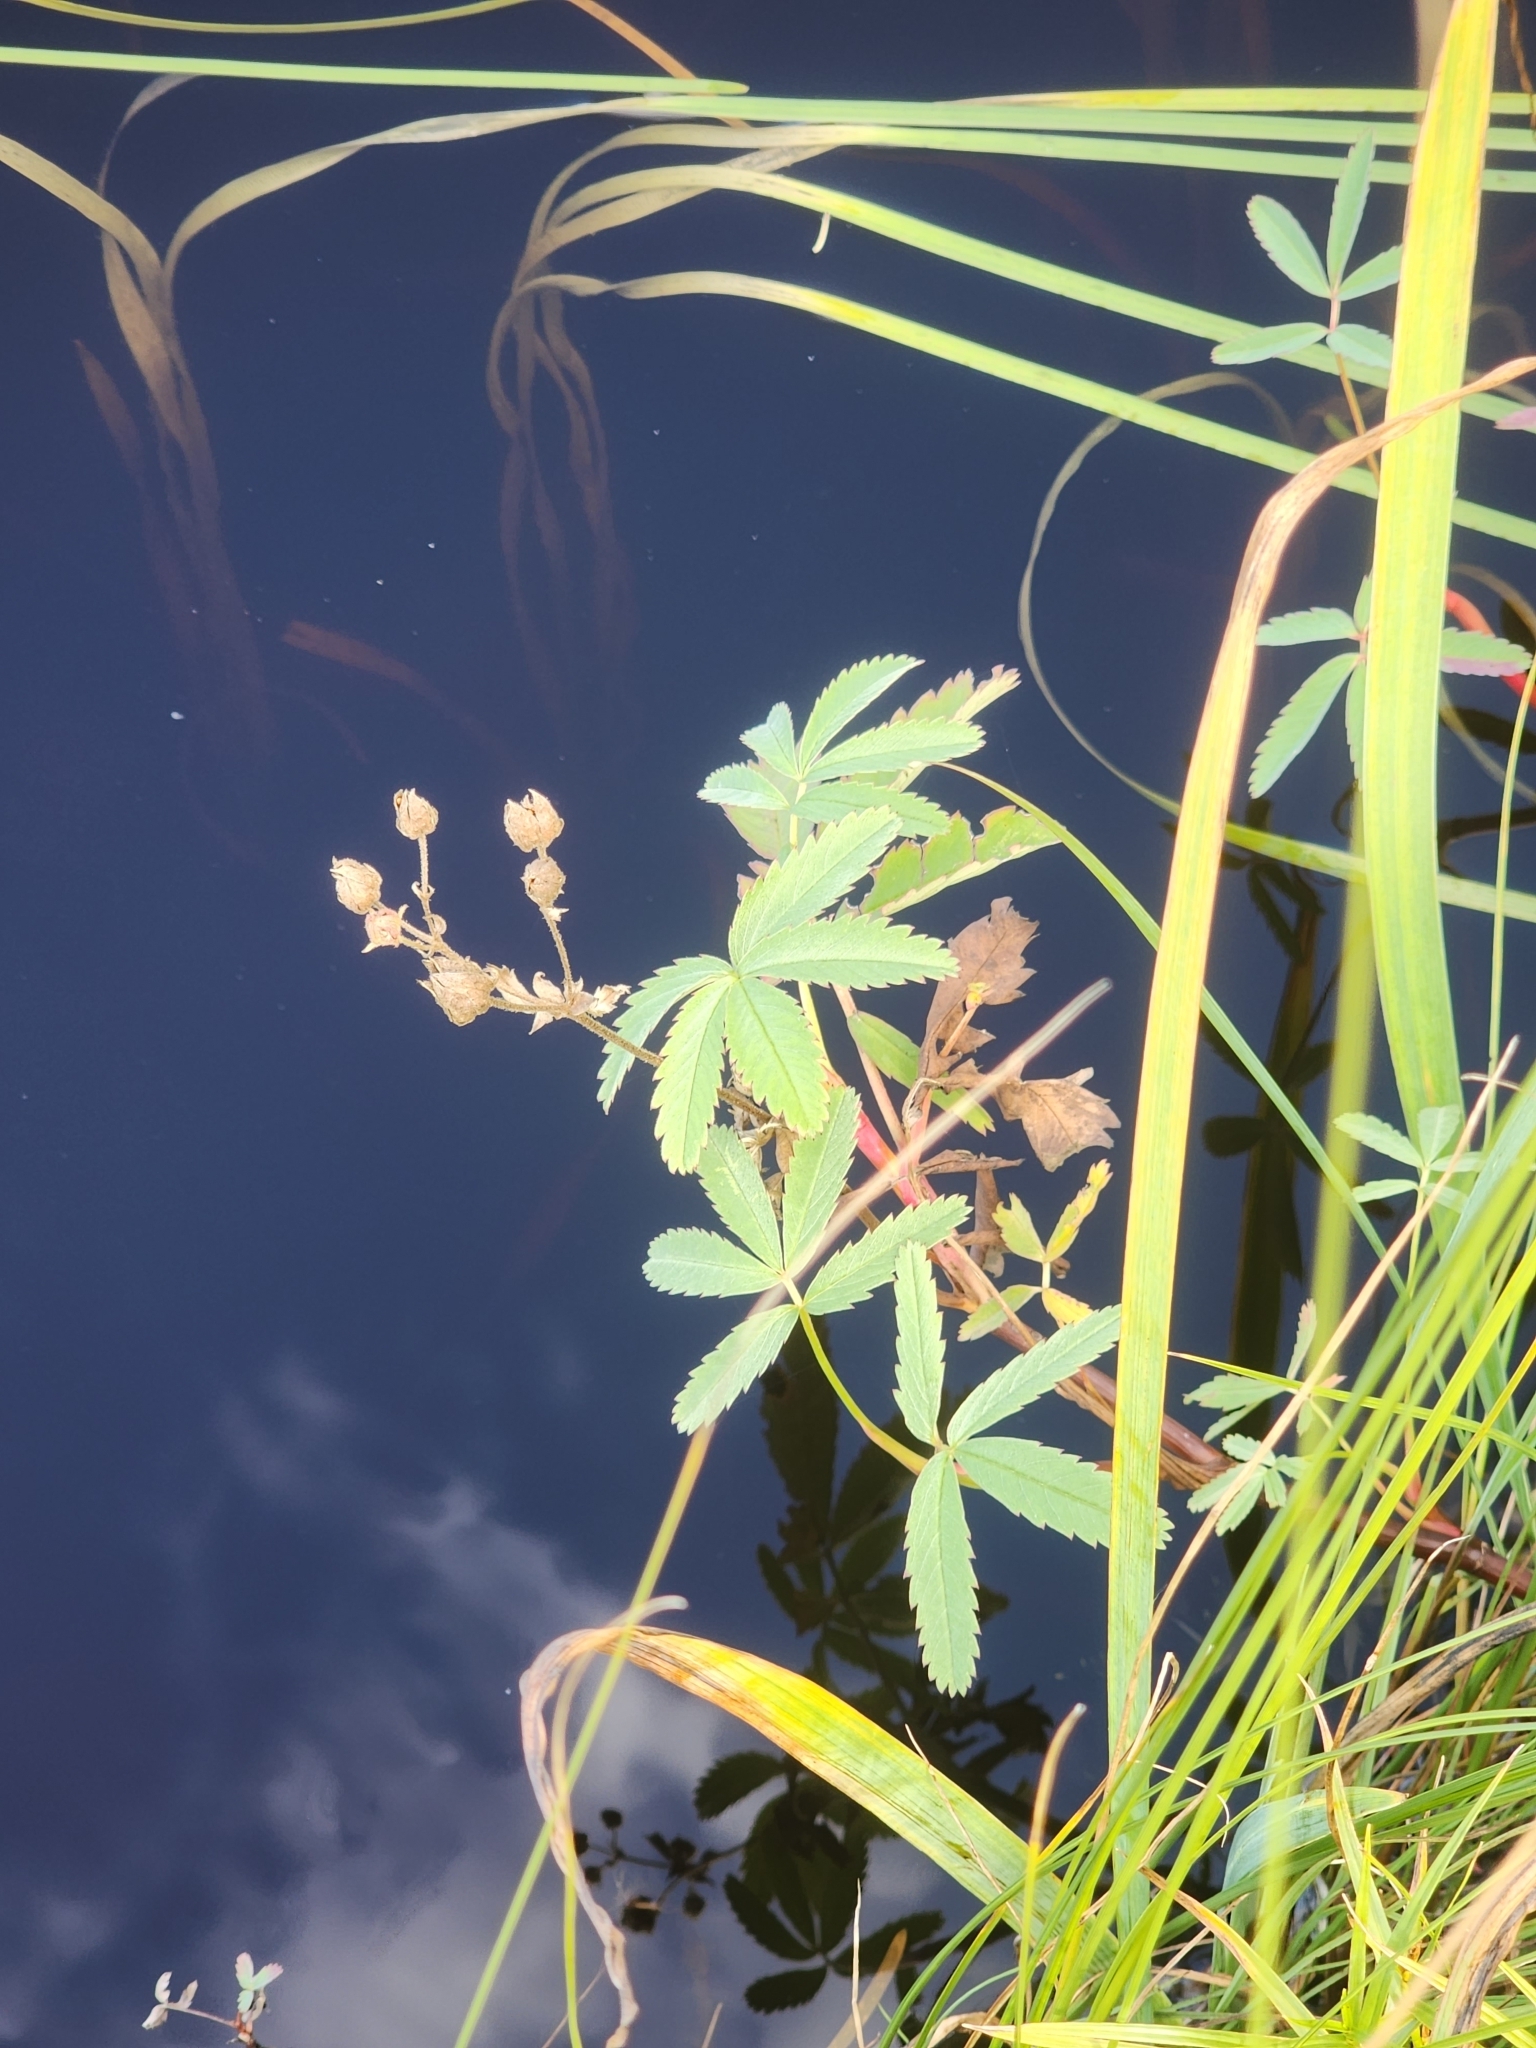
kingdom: Plantae
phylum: Tracheophyta
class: Magnoliopsida
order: Rosales
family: Rosaceae
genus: Comarum
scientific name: Comarum palustre
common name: Marsh cinquefoil
